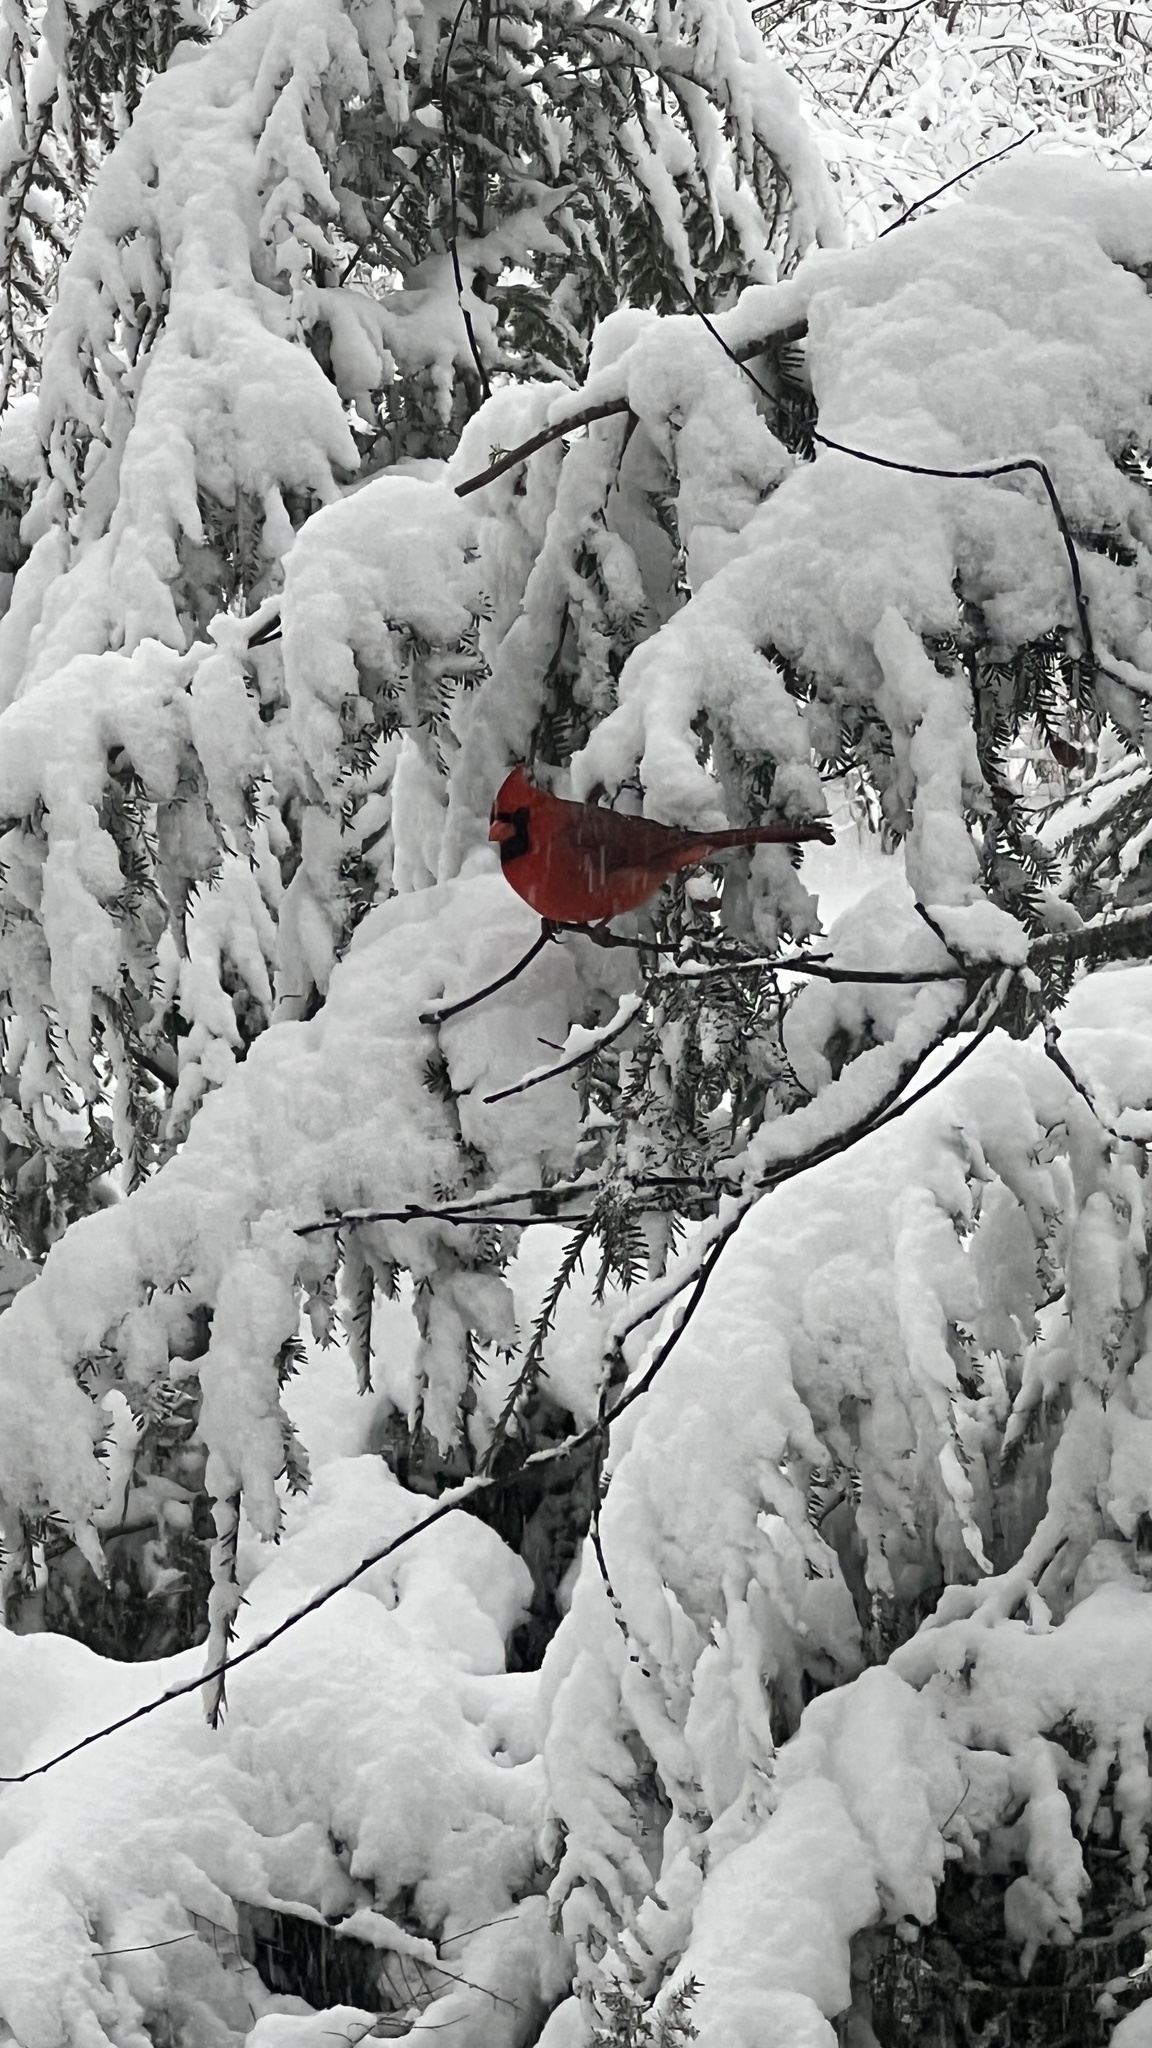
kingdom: Animalia
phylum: Chordata
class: Aves
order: Passeriformes
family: Cardinalidae
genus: Cardinalis
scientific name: Cardinalis cardinalis
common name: Northern cardinal
